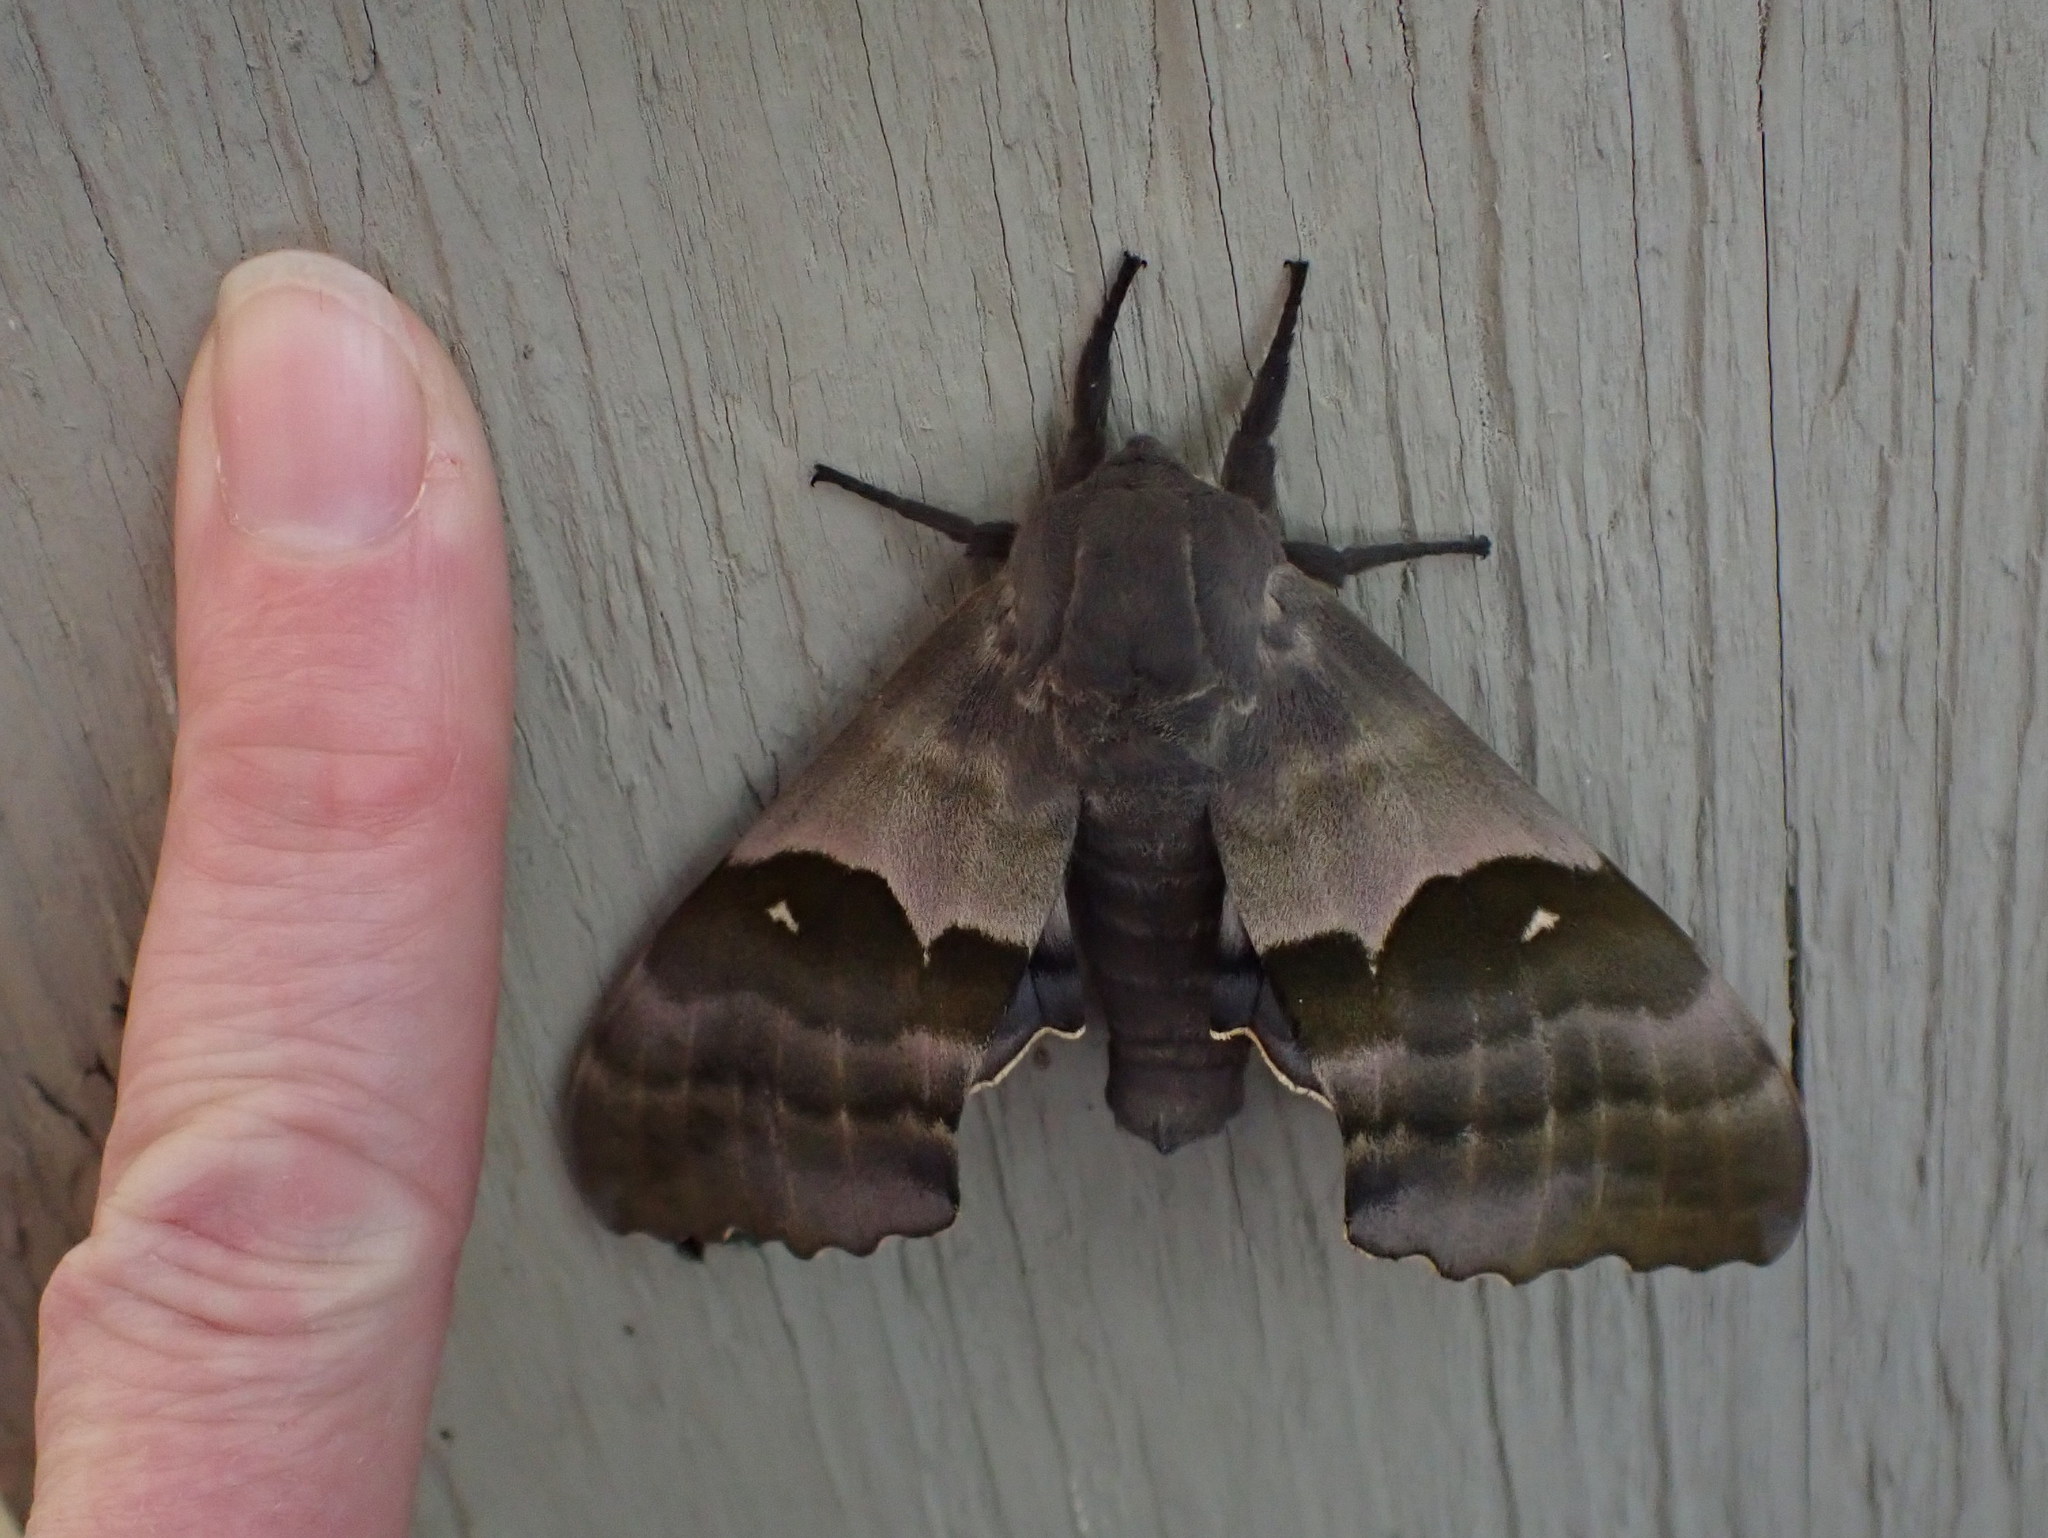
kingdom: Animalia
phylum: Arthropoda
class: Insecta
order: Lepidoptera
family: Sphingidae
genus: Pachysphinx
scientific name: Pachysphinx modesta
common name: Big poplar sphinx
